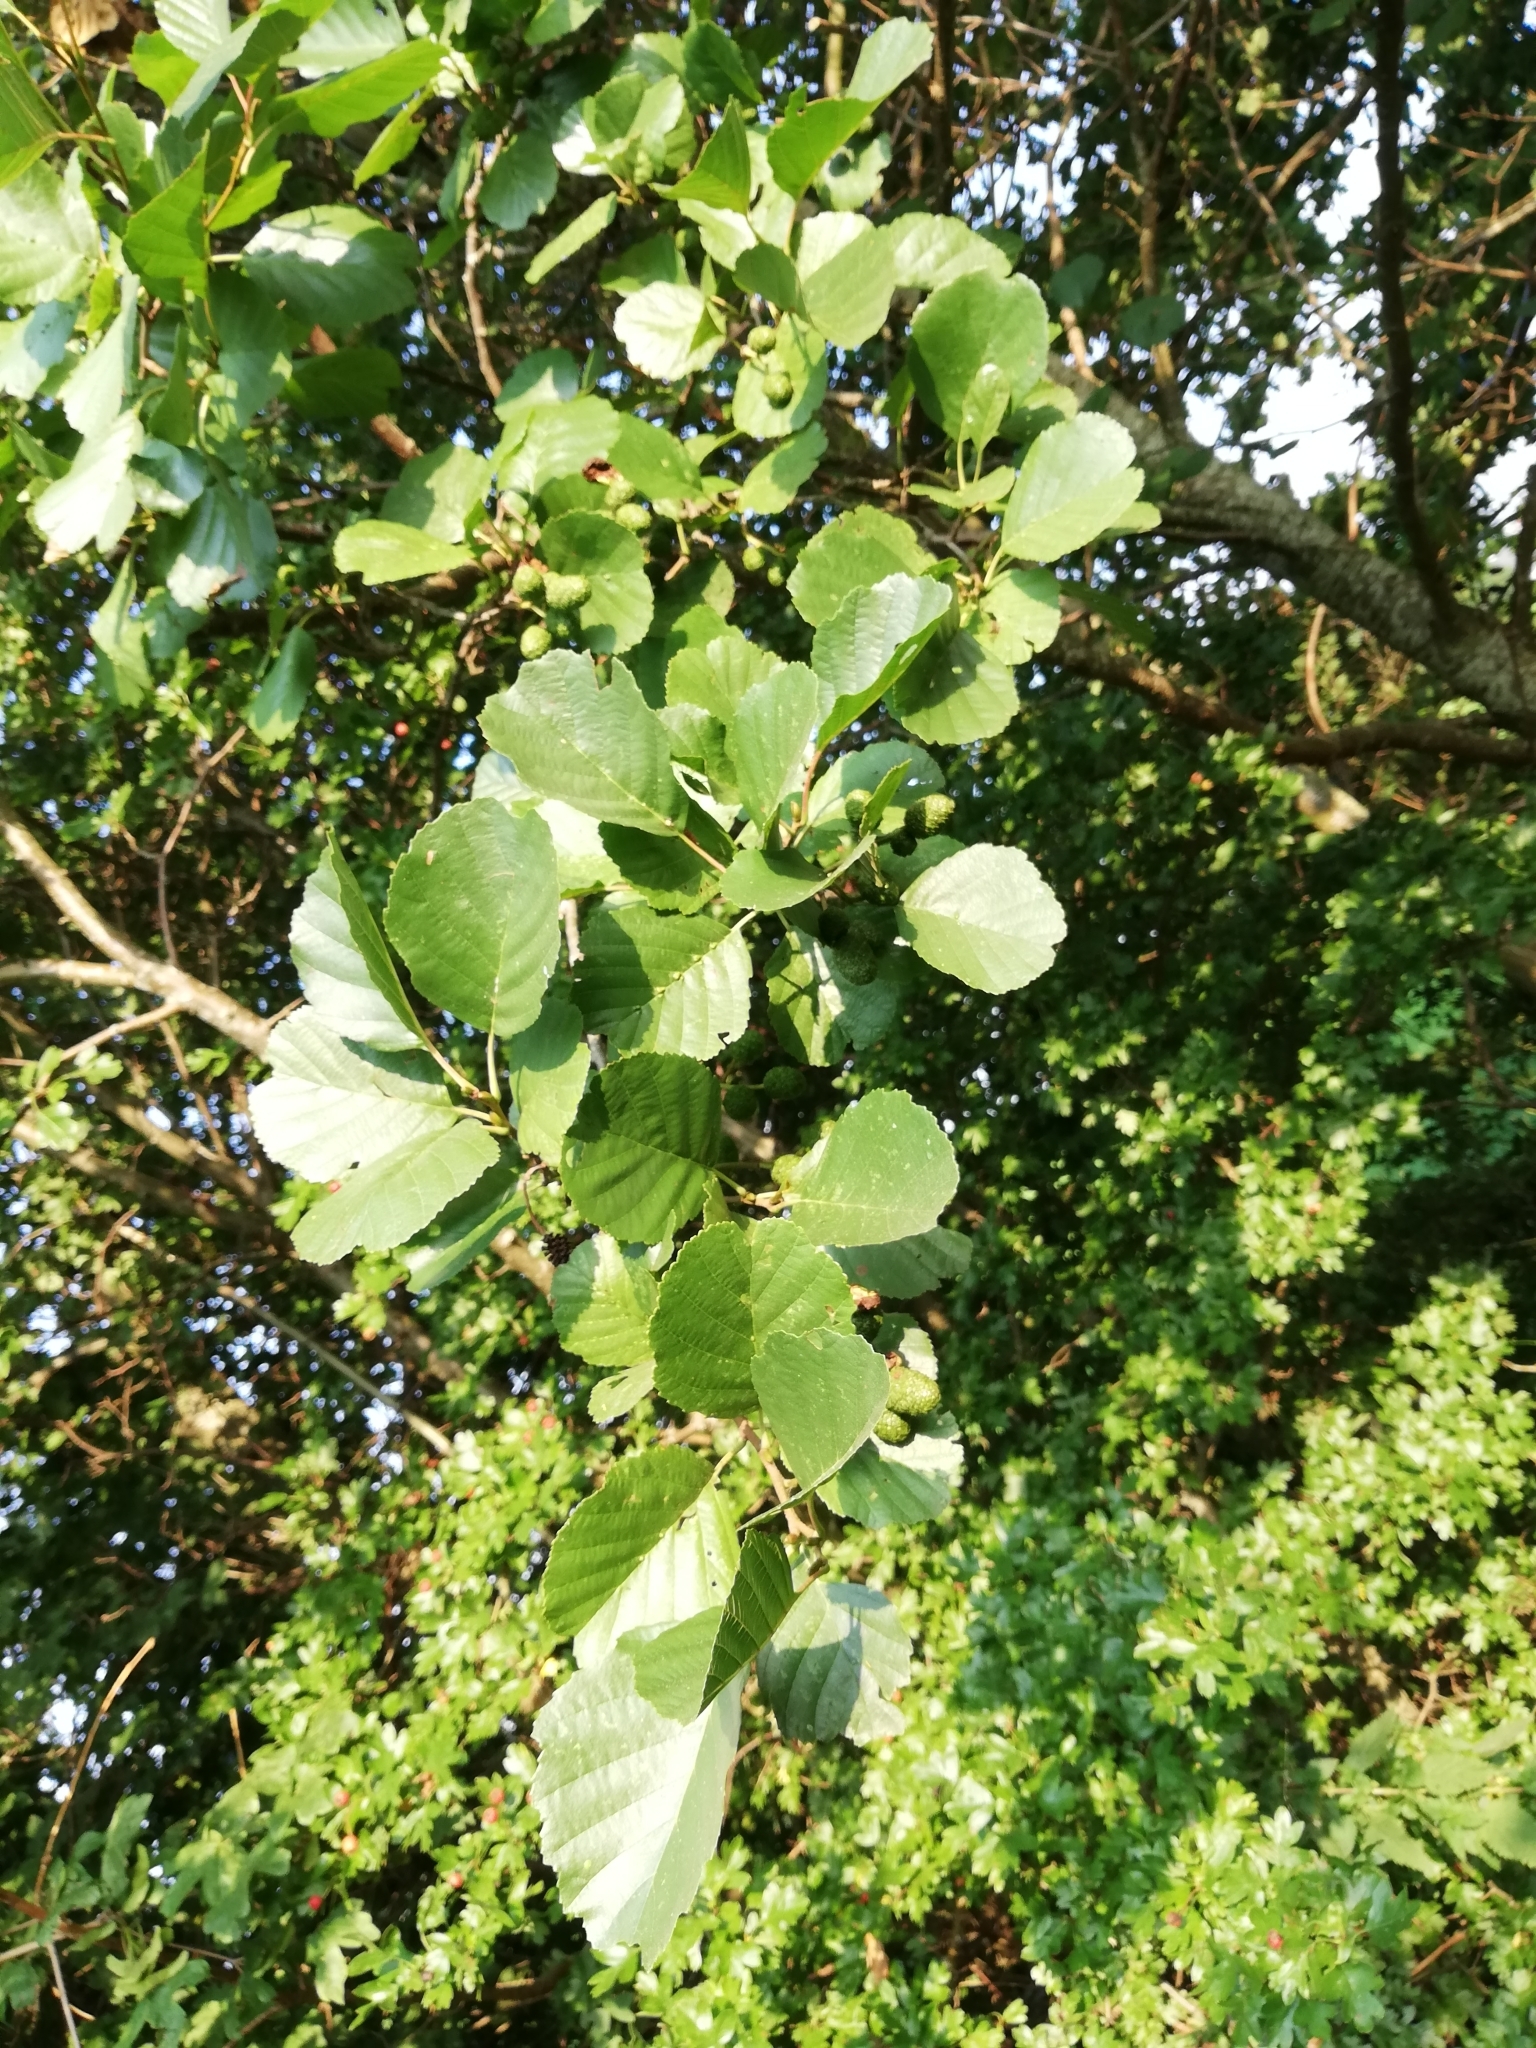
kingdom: Plantae
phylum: Tracheophyta
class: Magnoliopsida
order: Fagales
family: Betulaceae
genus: Alnus
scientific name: Alnus glutinosa
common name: Black alder
